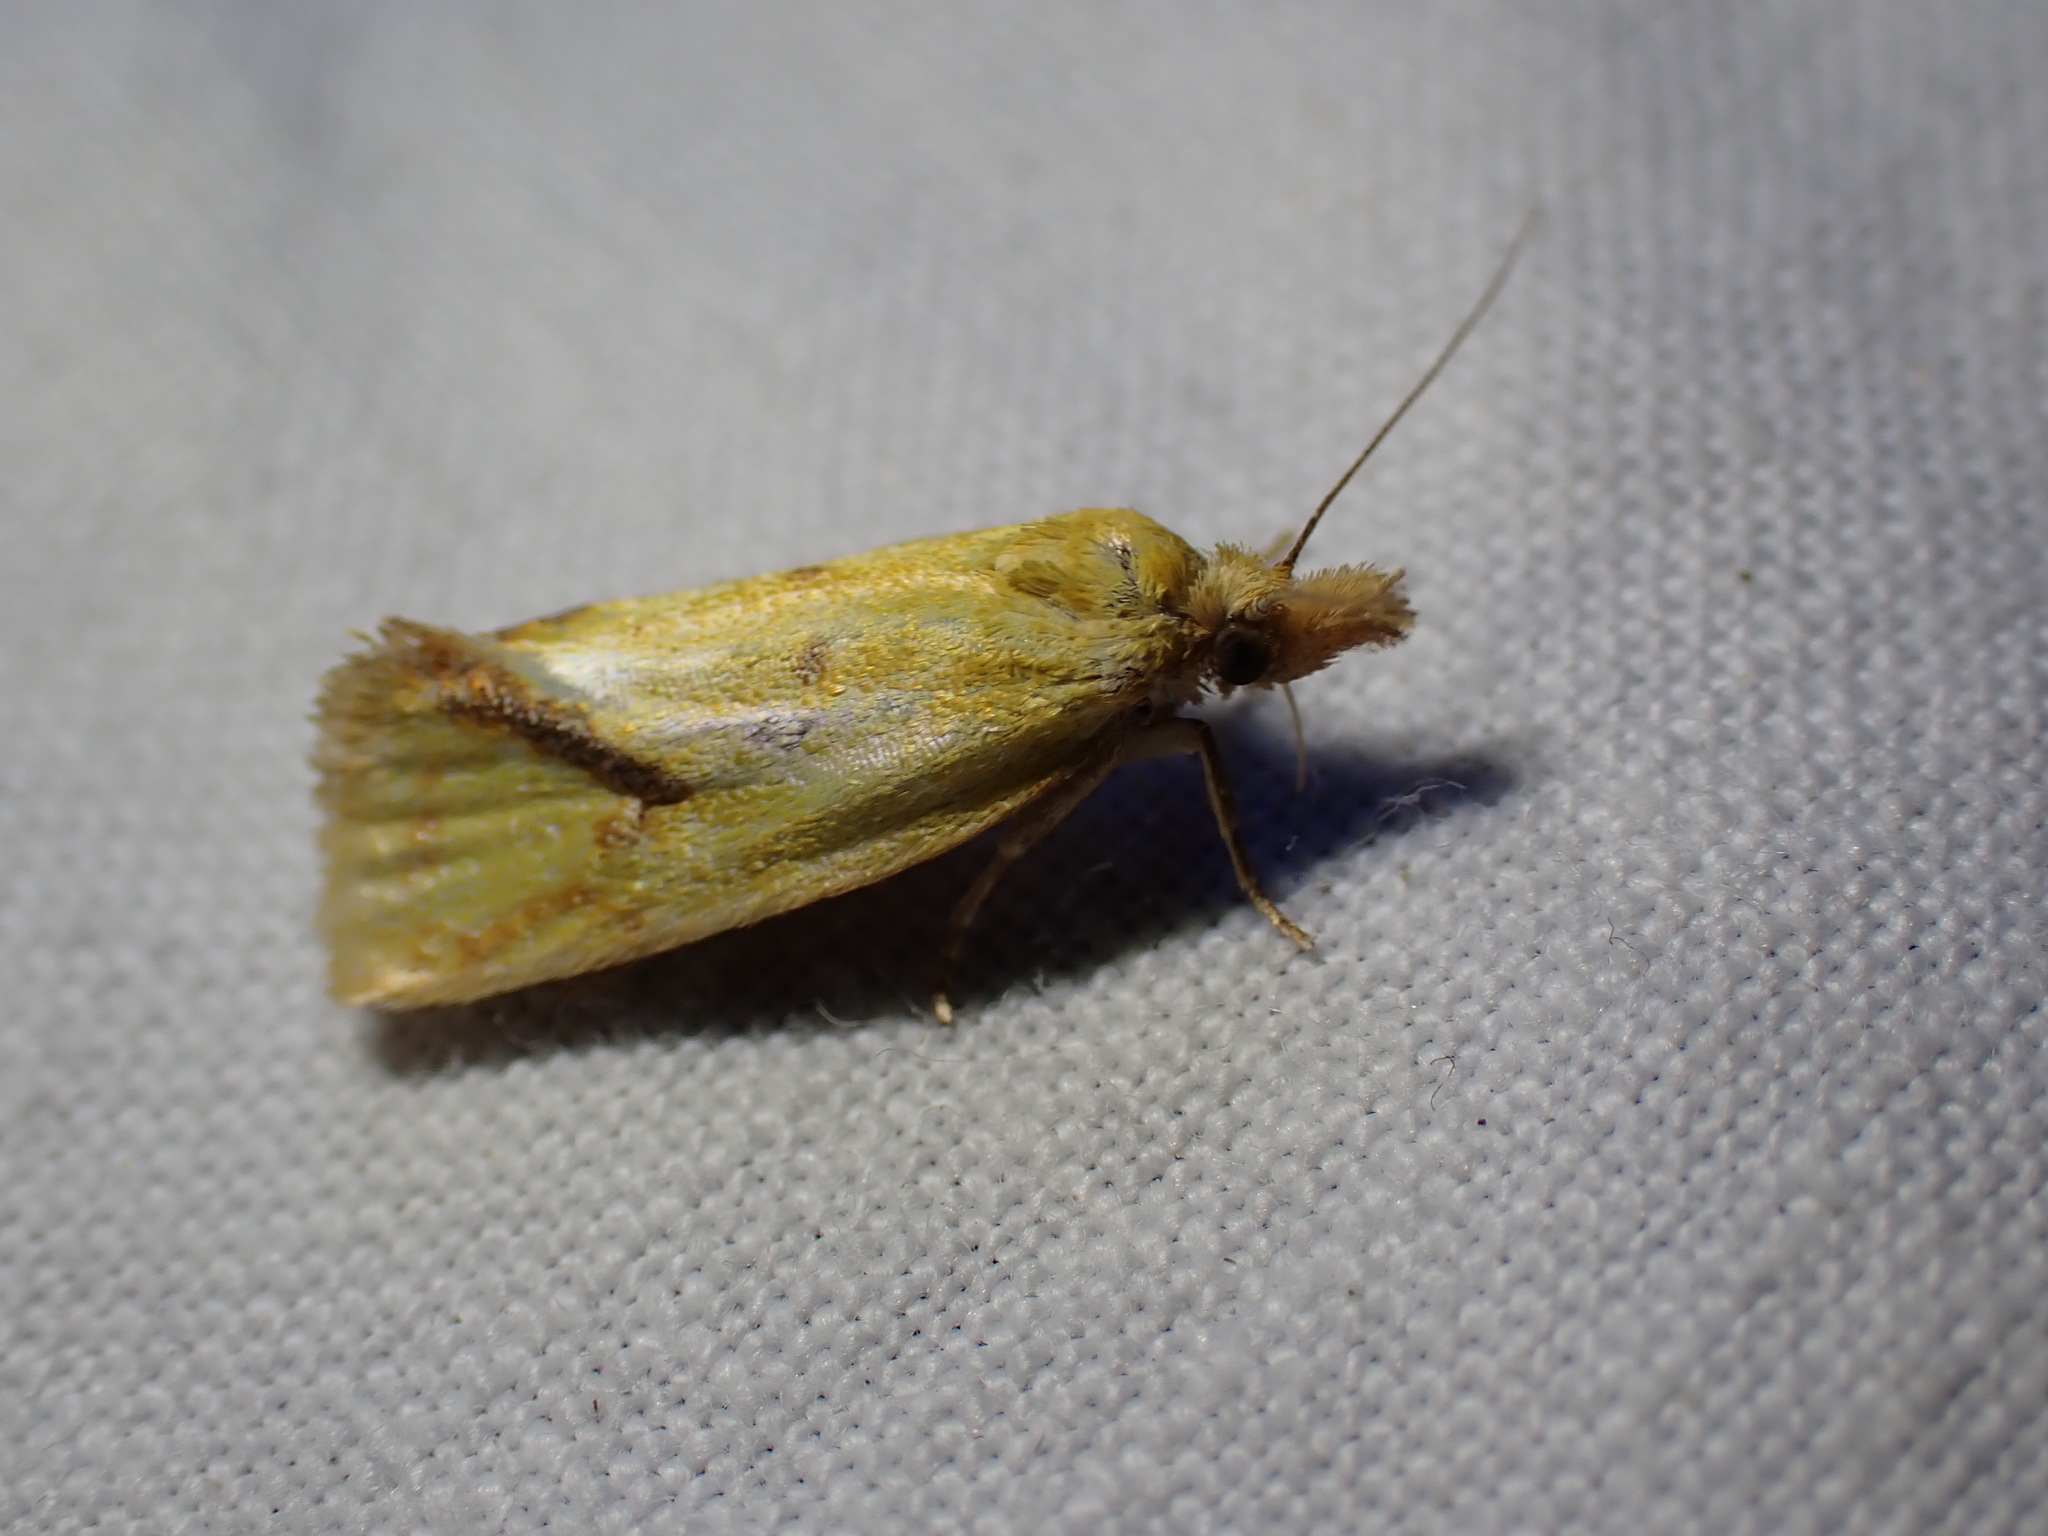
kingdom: Animalia
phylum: Arthropoda
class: Insecta
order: Lepidoptera
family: Tortricidae
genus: Agapeta
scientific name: Agapeta hamana
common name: Common yellow conch
